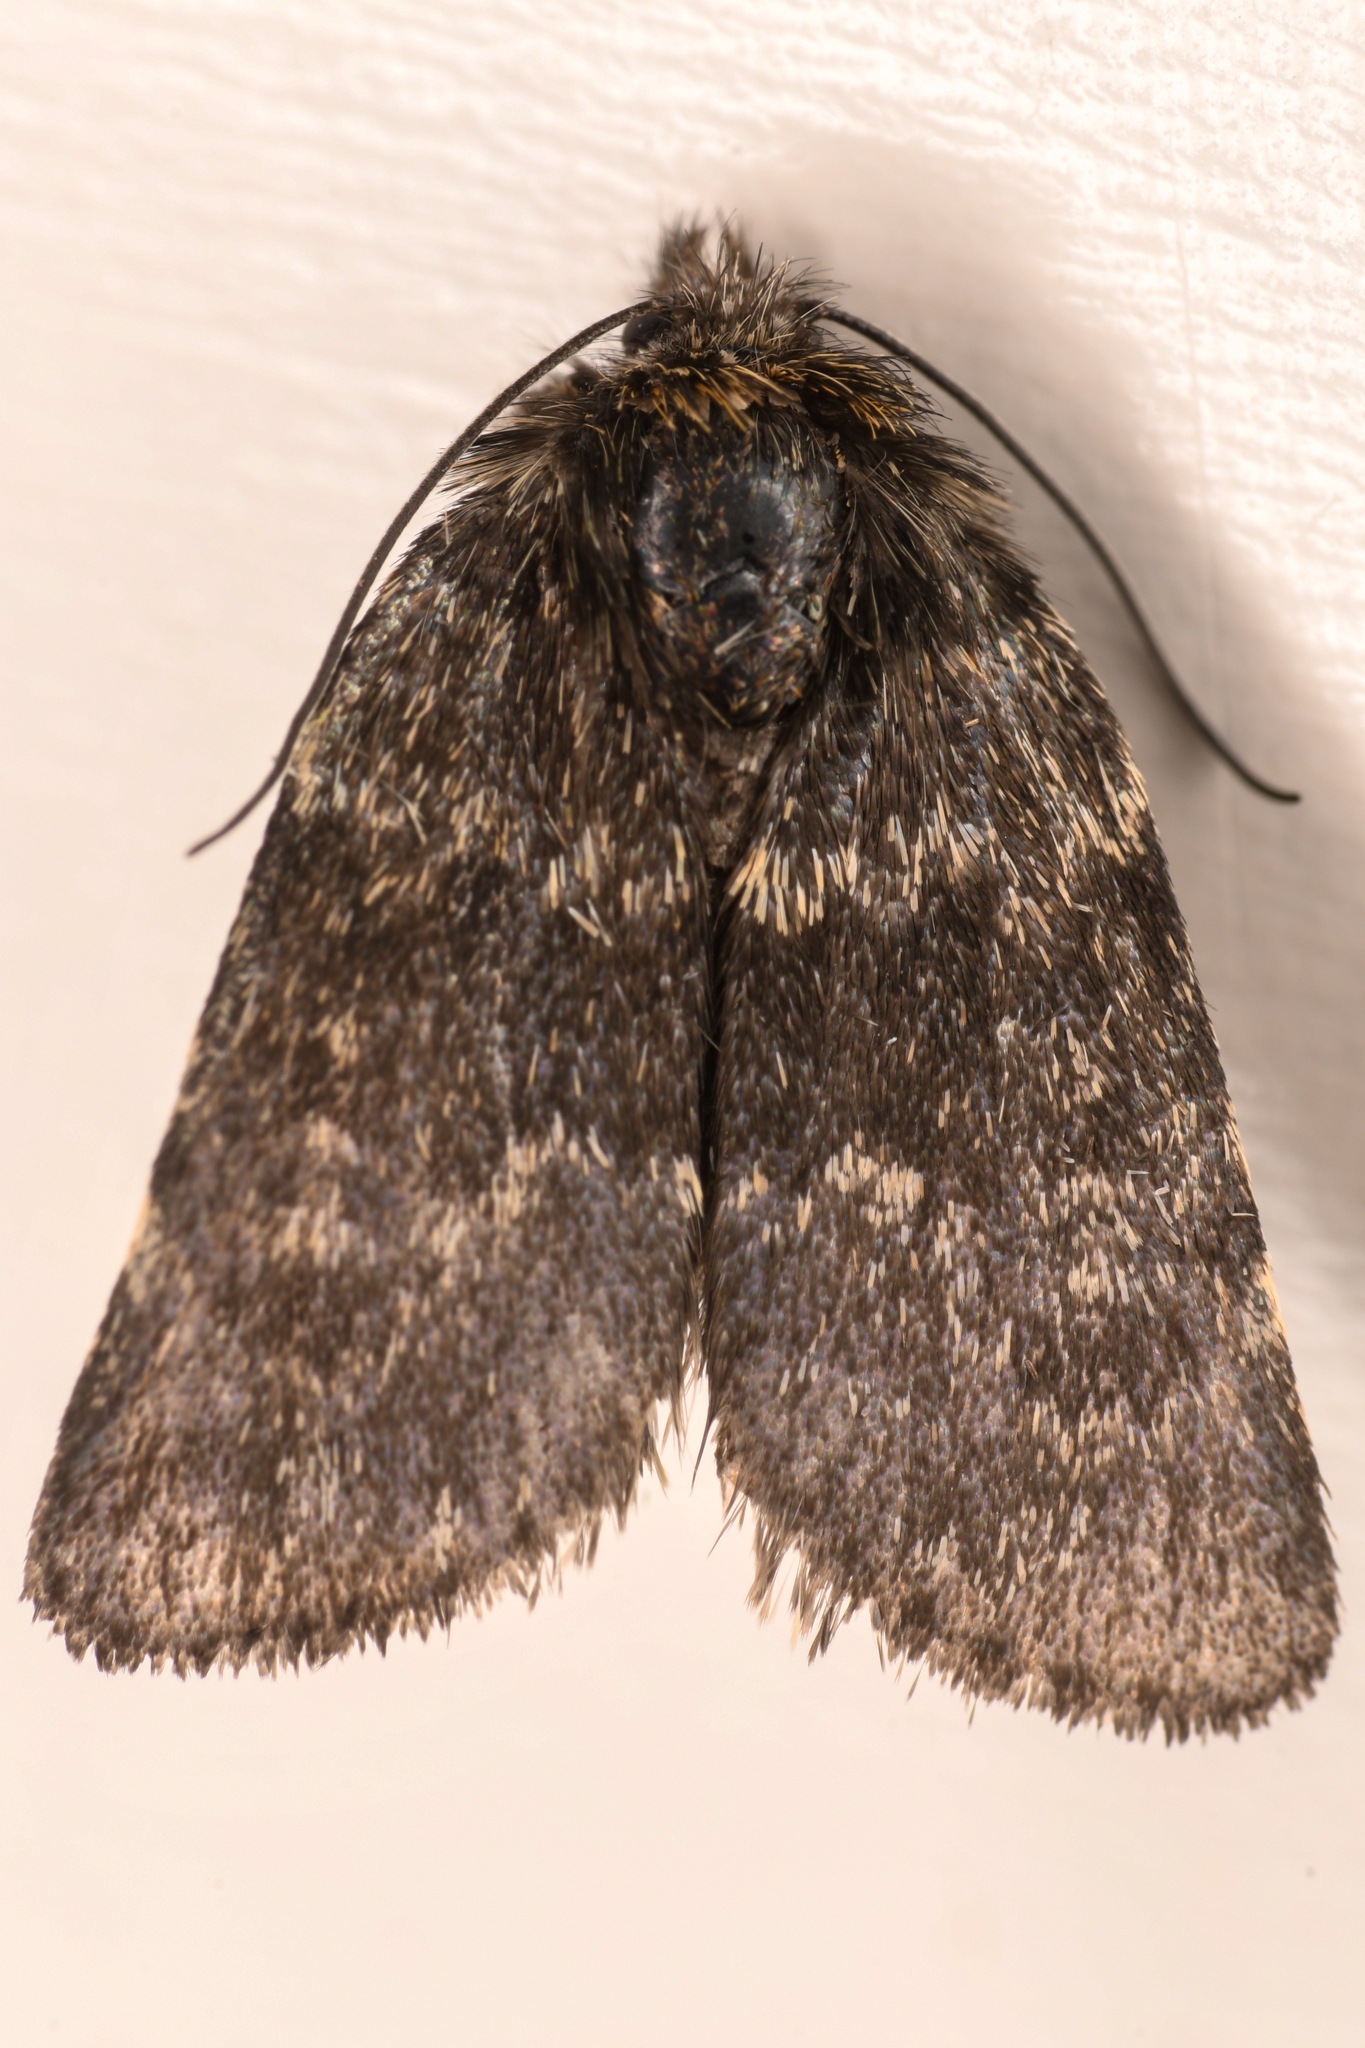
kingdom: Animalia
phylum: Arthropoda
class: Insecta
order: Lepidoptera
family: Noctuidae
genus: Sympistis
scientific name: Sympistis nigrita
